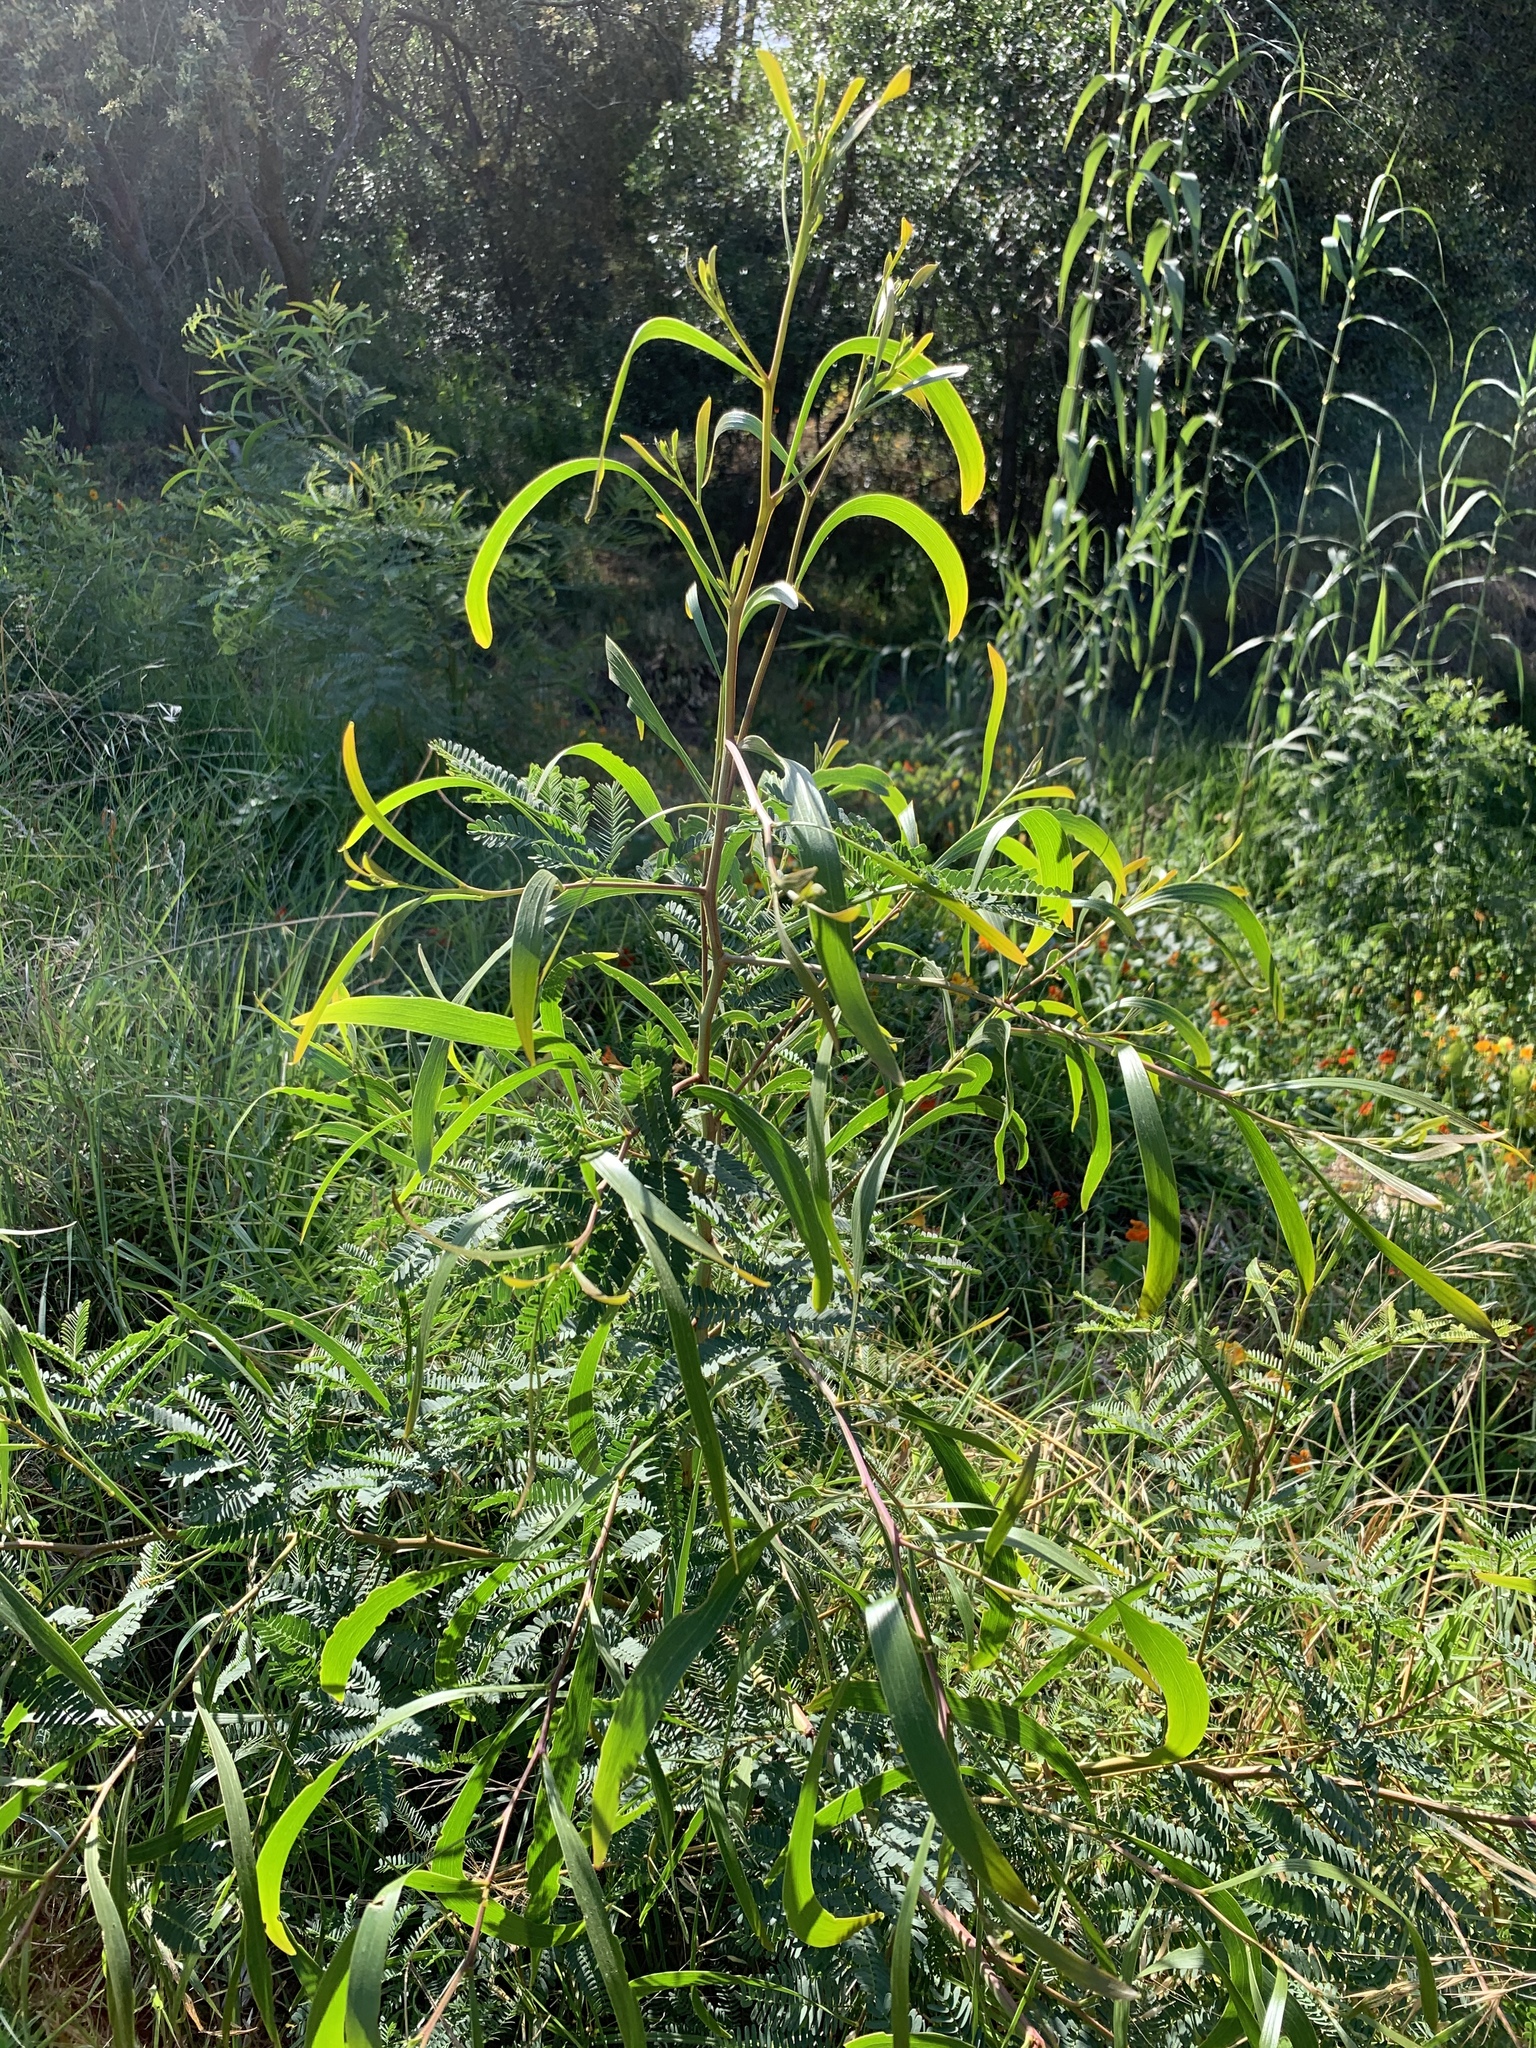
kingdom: Plantae
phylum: Tracheophyta
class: Magnoliopsida
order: Fabales
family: Fabaceae
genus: Acacia
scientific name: Acacia implexa
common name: Black wattle
